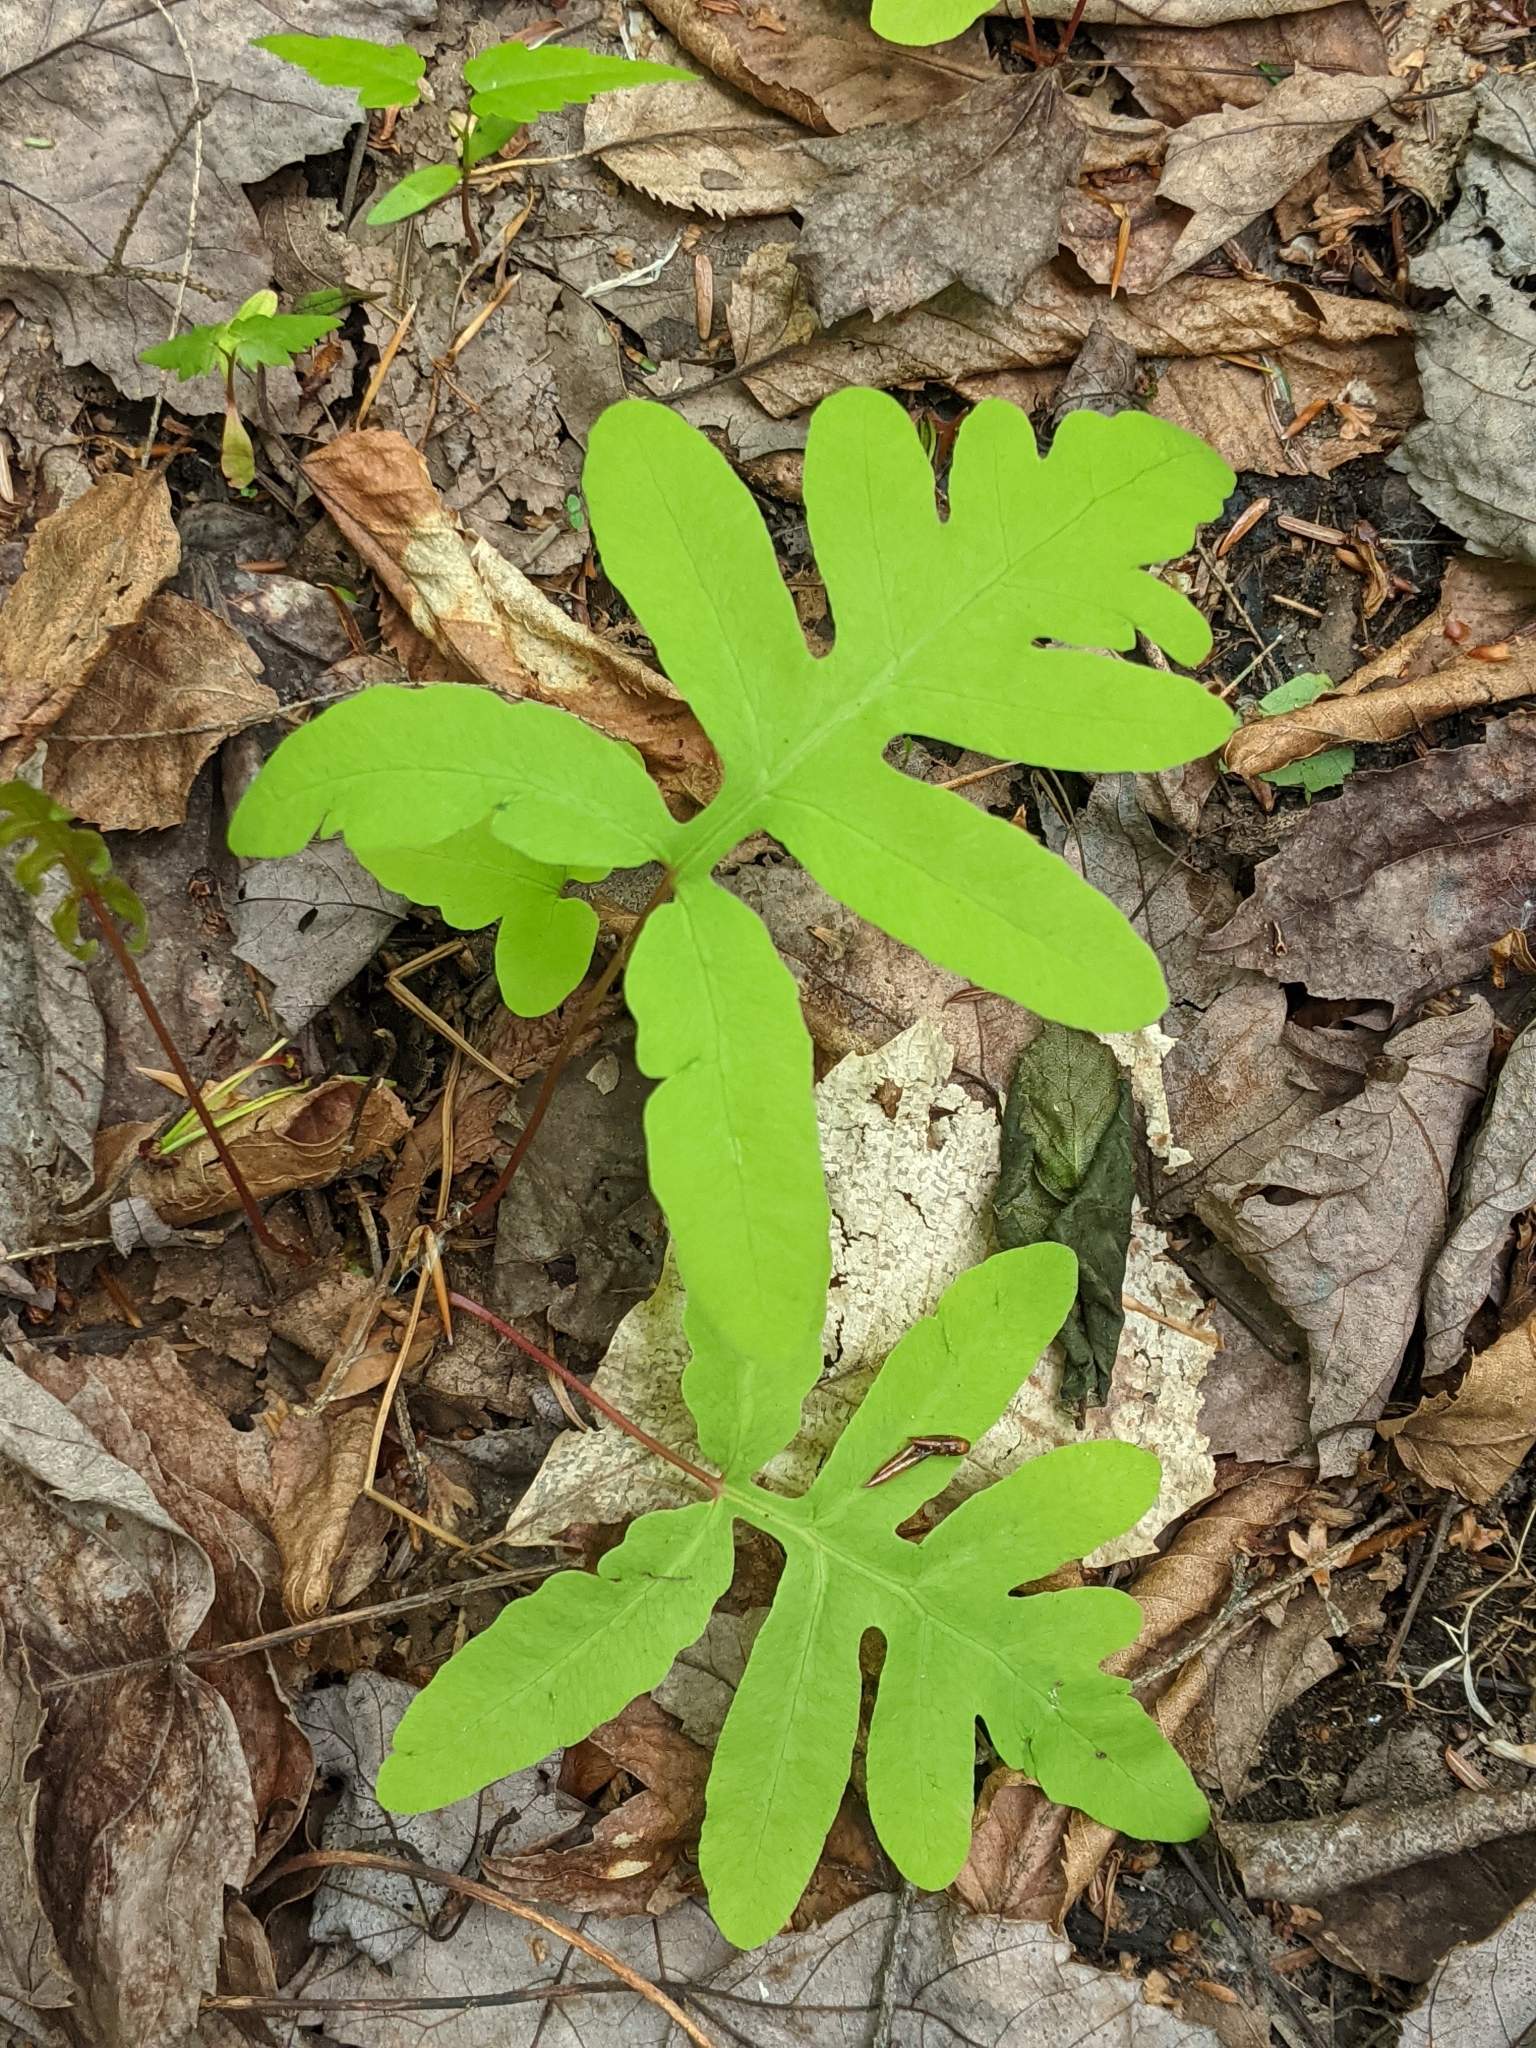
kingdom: Plantae
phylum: Tracheophyta
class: Polypodiopsida
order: Polypodiales
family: Onocleaceae
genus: Onoclea
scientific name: Onoclea sensibilis
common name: Sensitive fern
